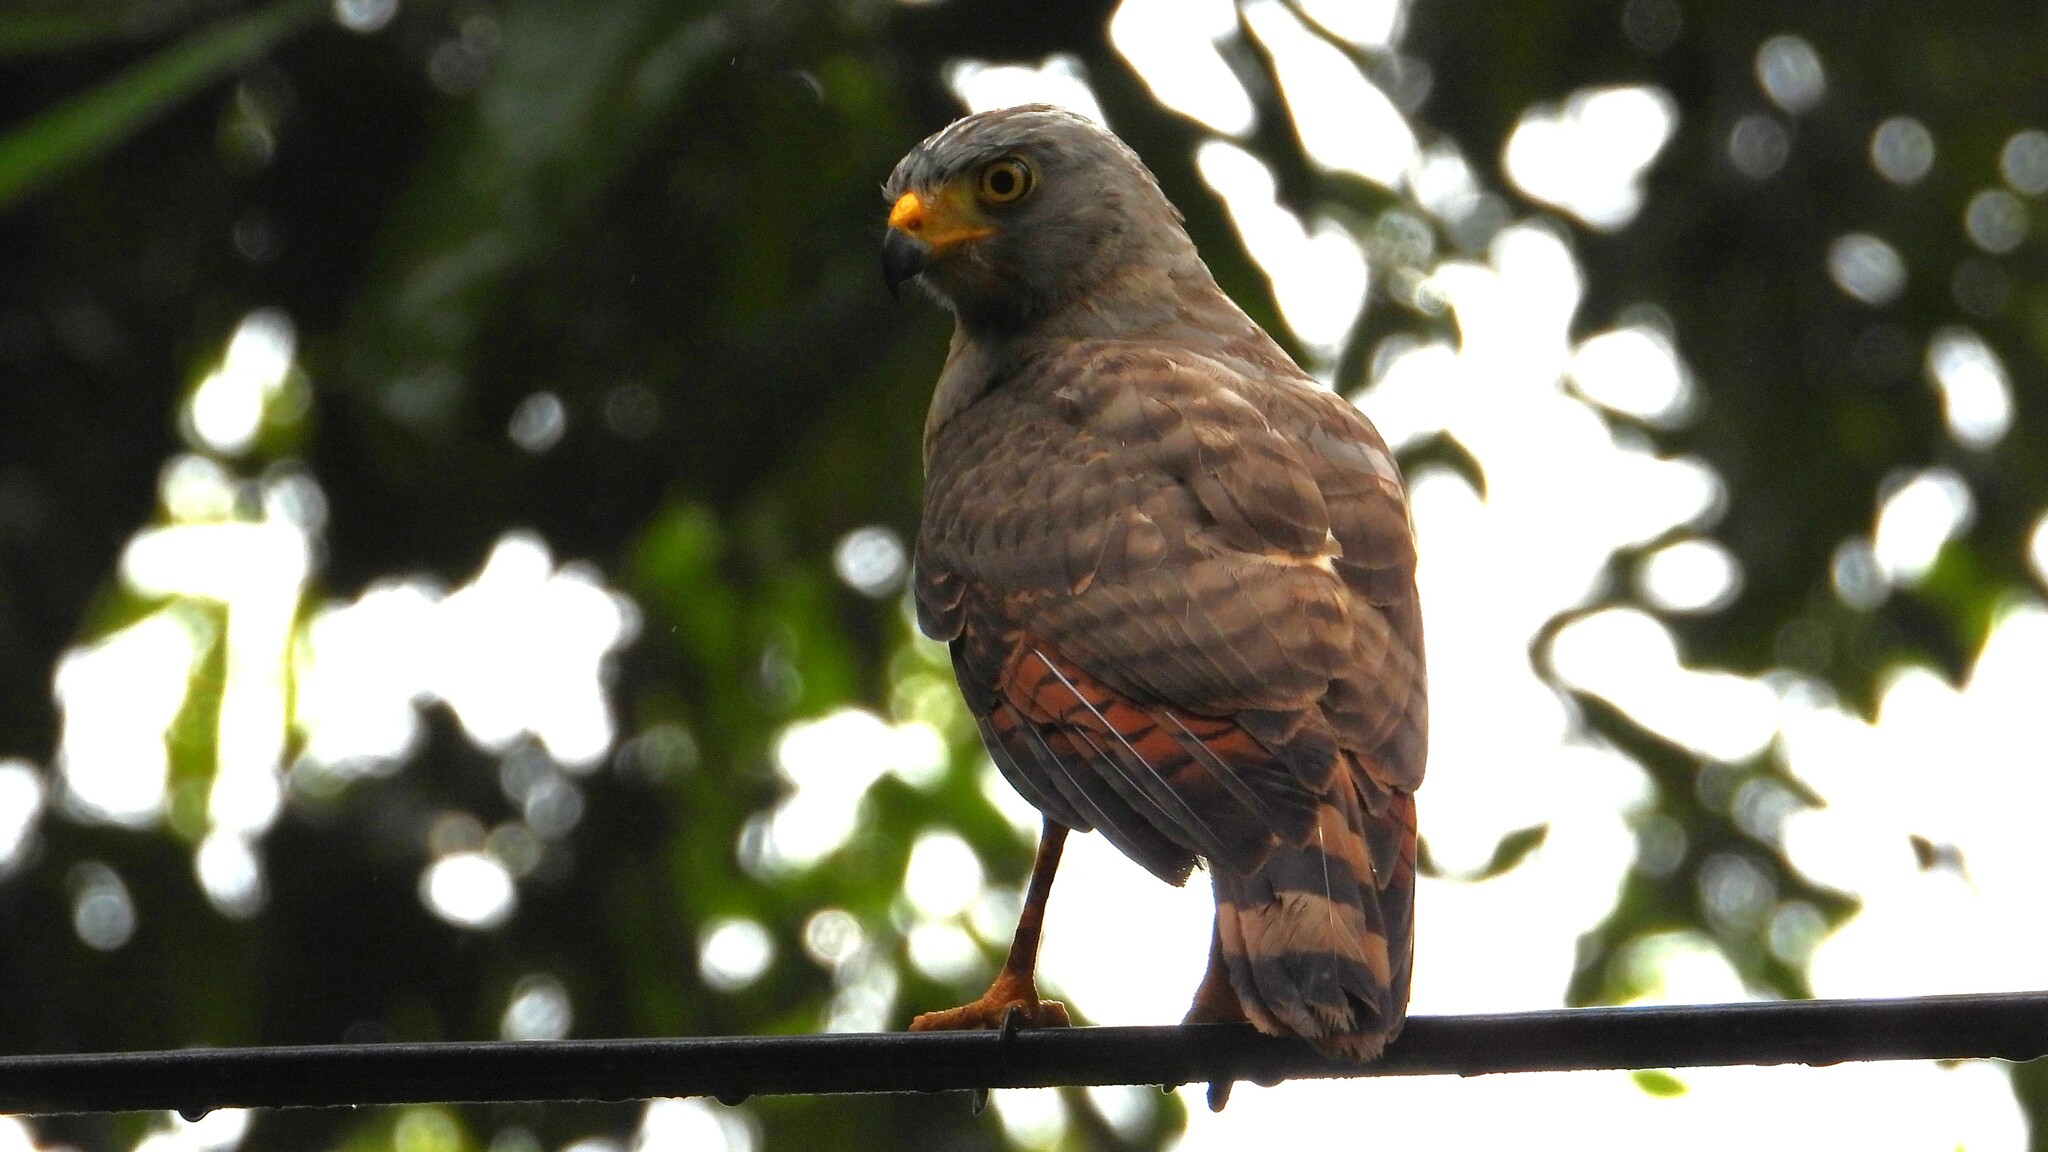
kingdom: Animalia
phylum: Chordata
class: Aves
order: Accipitriformes
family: Accipitridae
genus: Rupornis
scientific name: Rupornis magnirostris
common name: Roadside hawk
